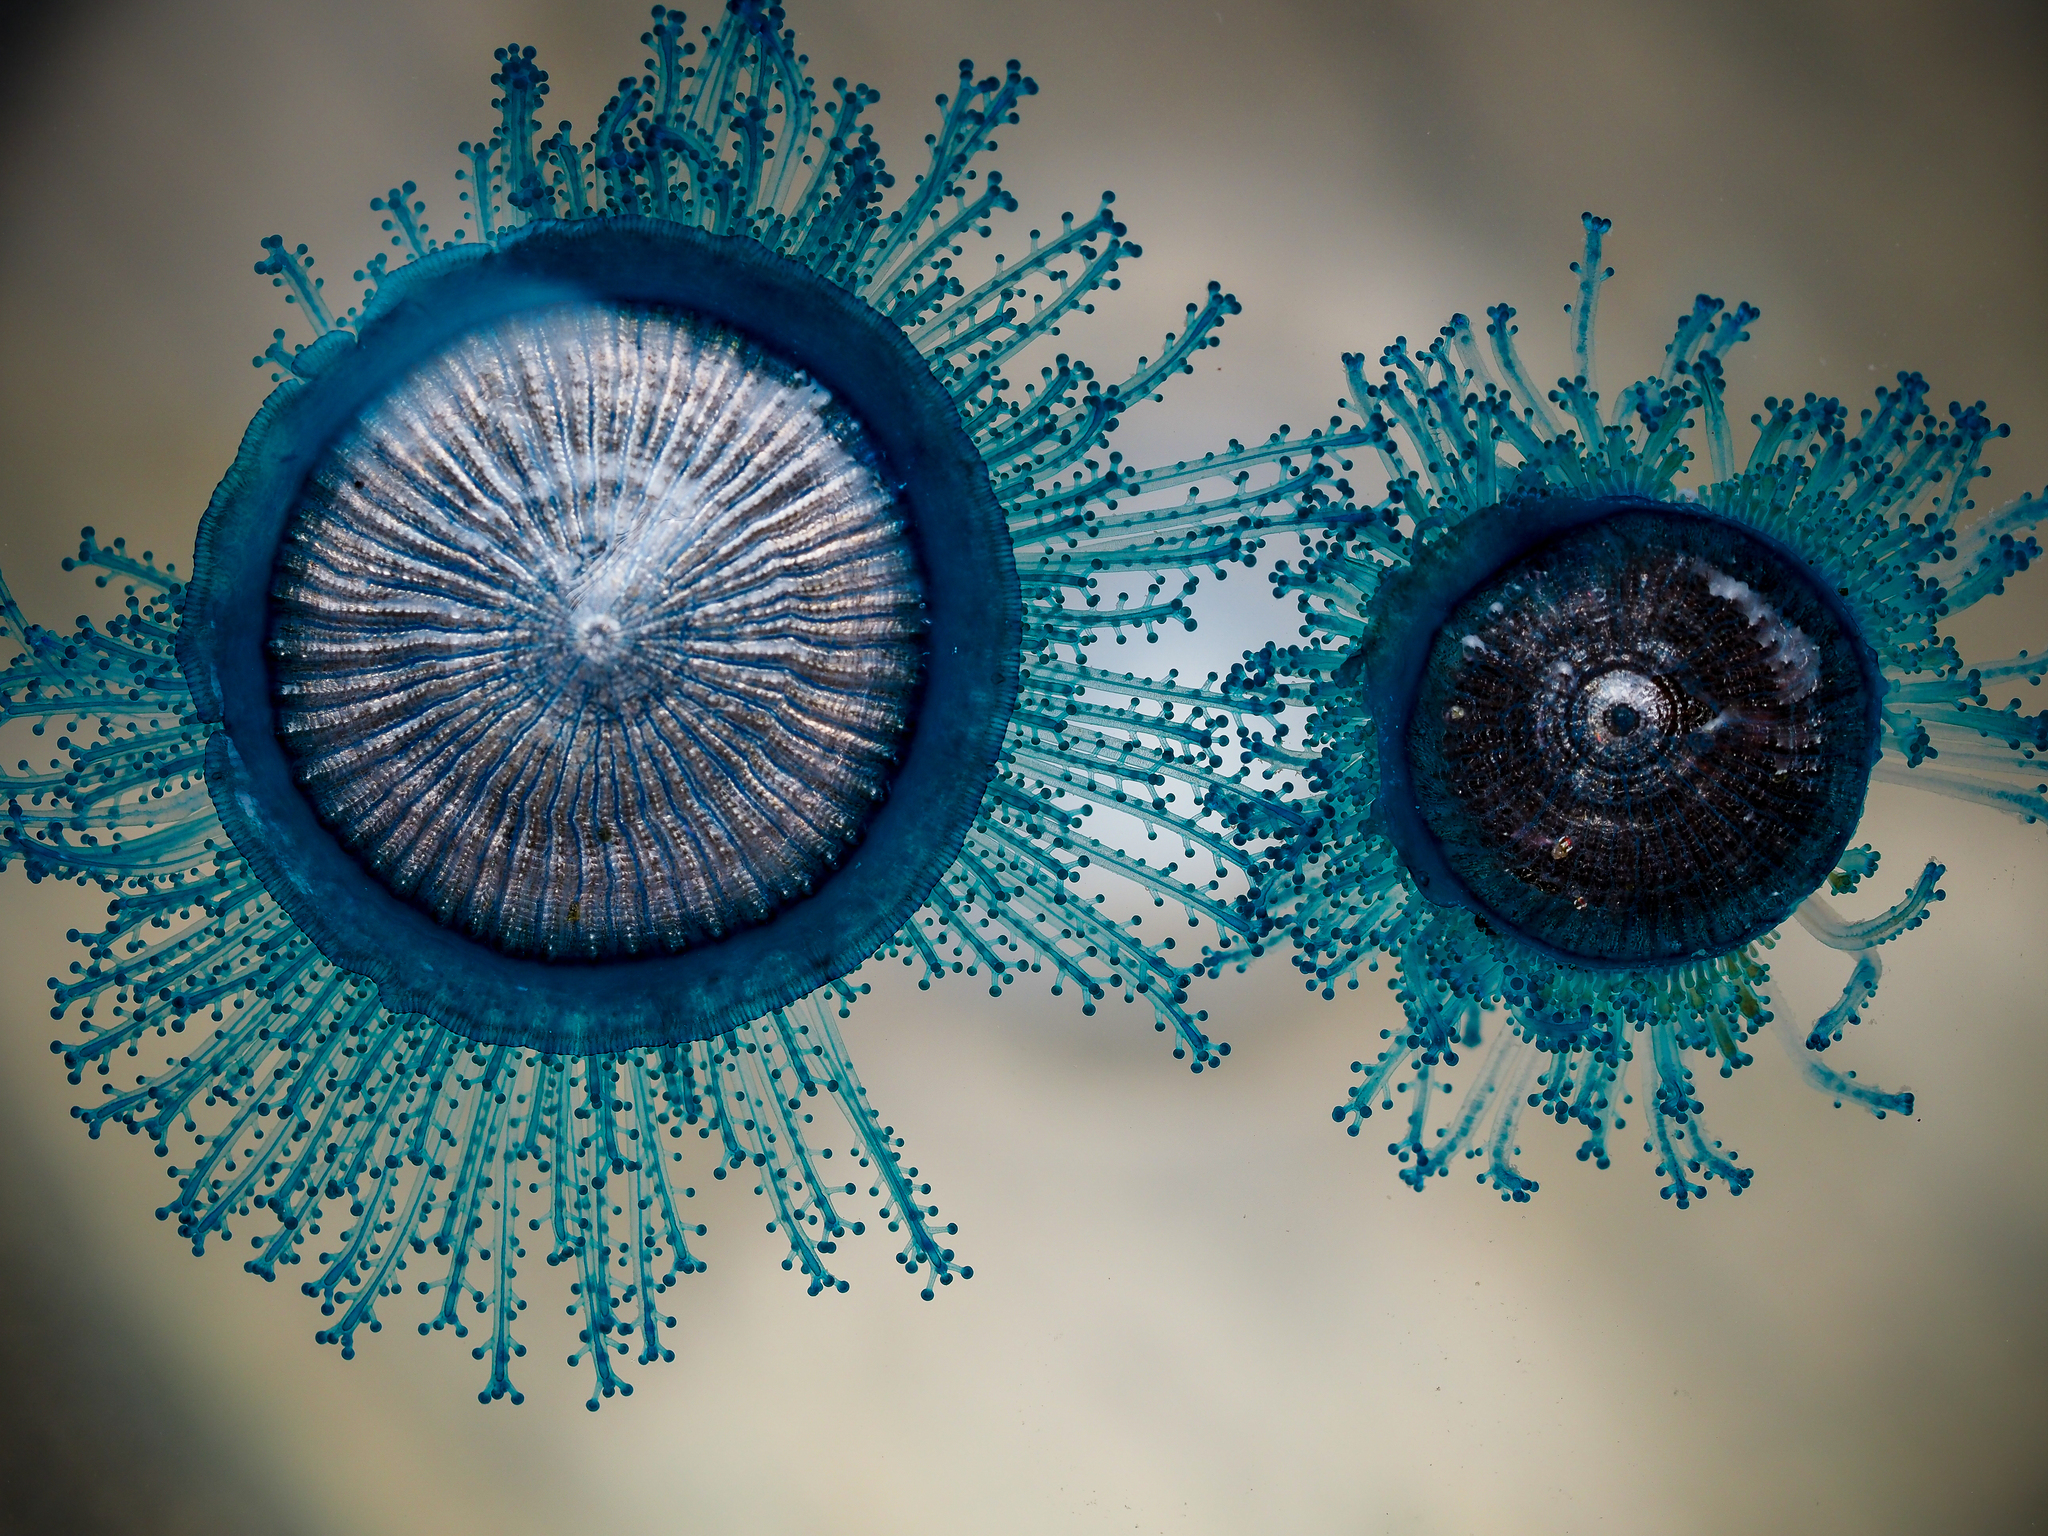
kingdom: Animalia
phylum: Cnidaria
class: Hydrozoa
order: Anthoathecata
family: Porpitidae
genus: Porpita
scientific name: Porpita porpita
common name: Blue button
